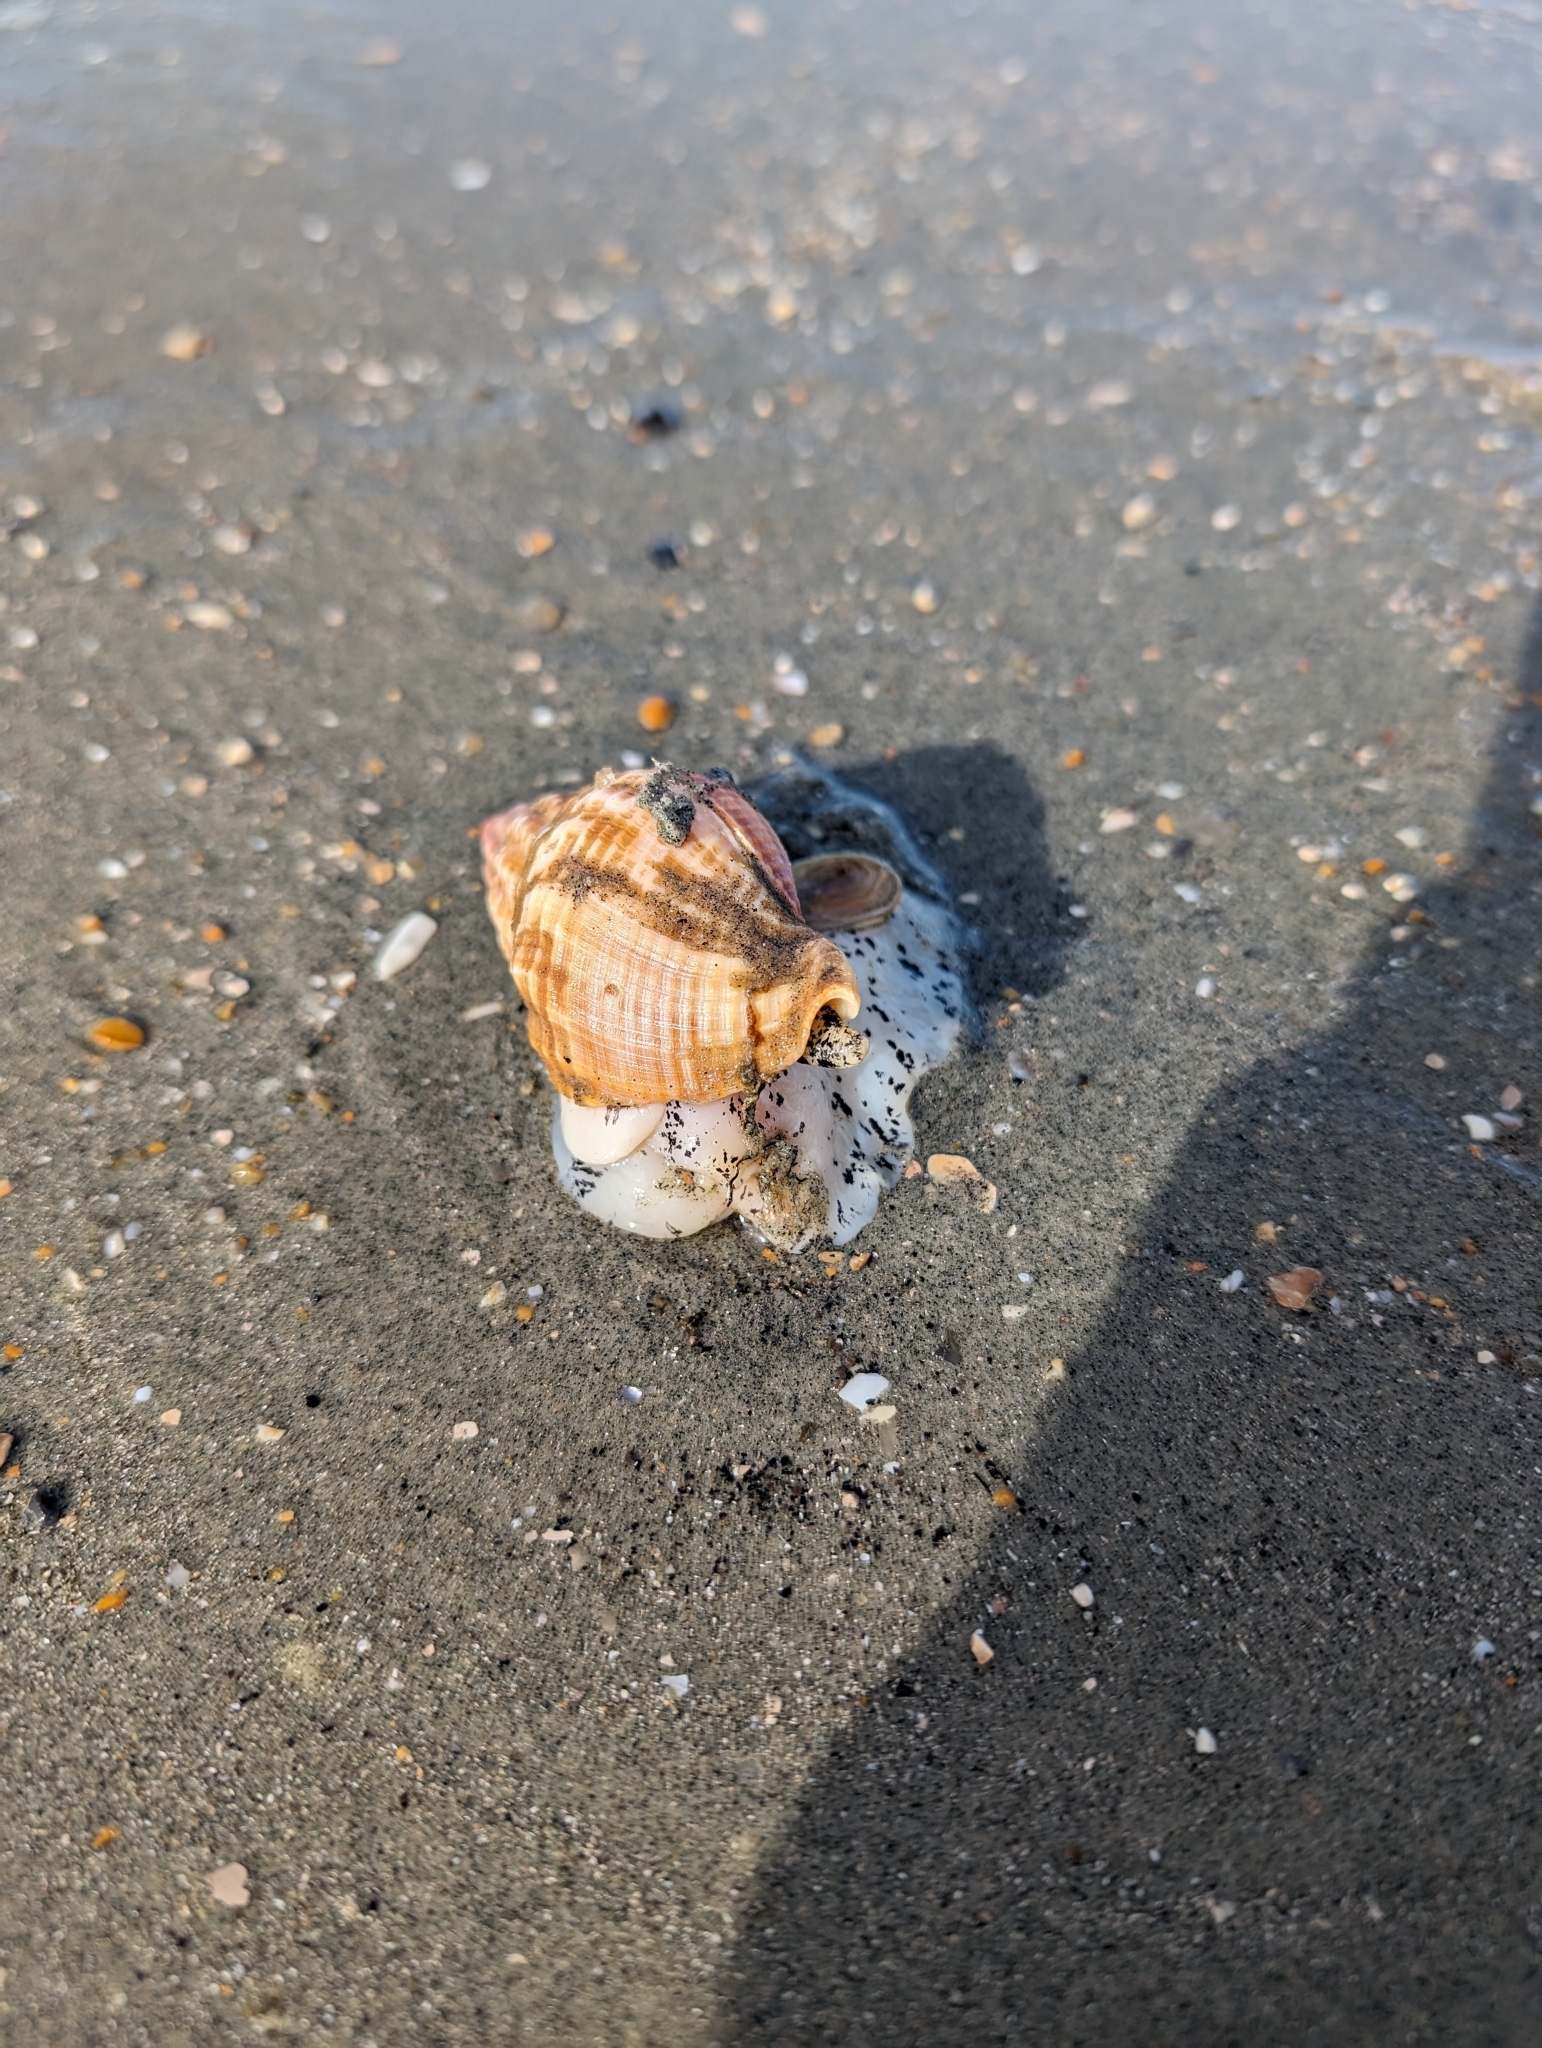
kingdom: Animalia
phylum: Mollusca
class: Gastropoda
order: Neogastropoda
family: Buccinidae
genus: Buccinum
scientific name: Buccinum undatum
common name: Common whelk
